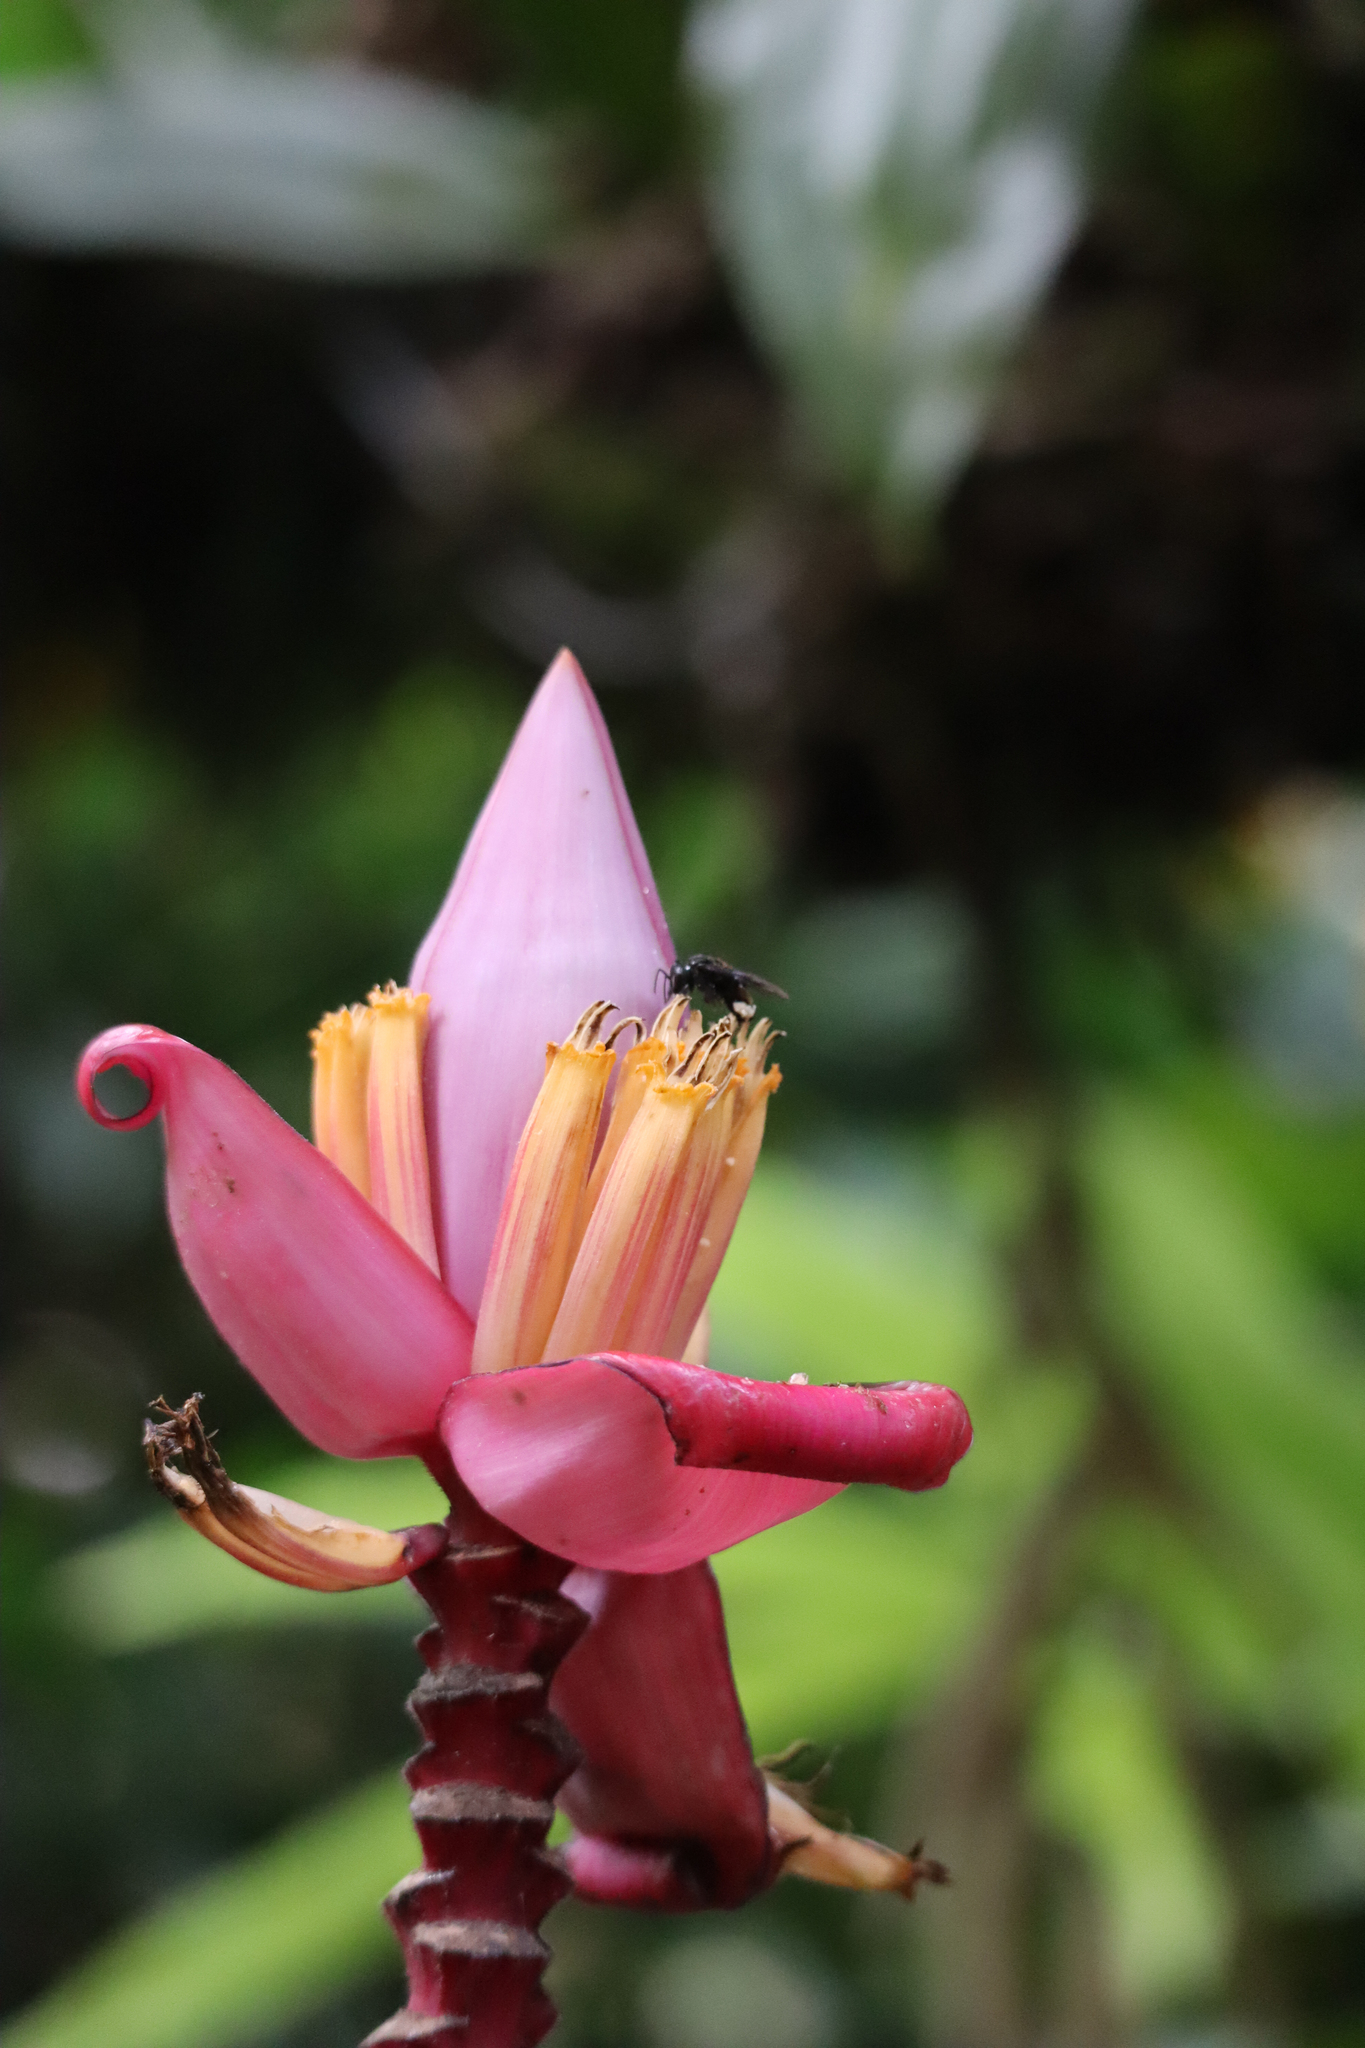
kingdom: Plantae
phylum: Tracheophyta
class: Liliopsida
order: Zingiberales
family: Musaceae
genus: Musa
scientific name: Musa velutina
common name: Pink velvet banana
